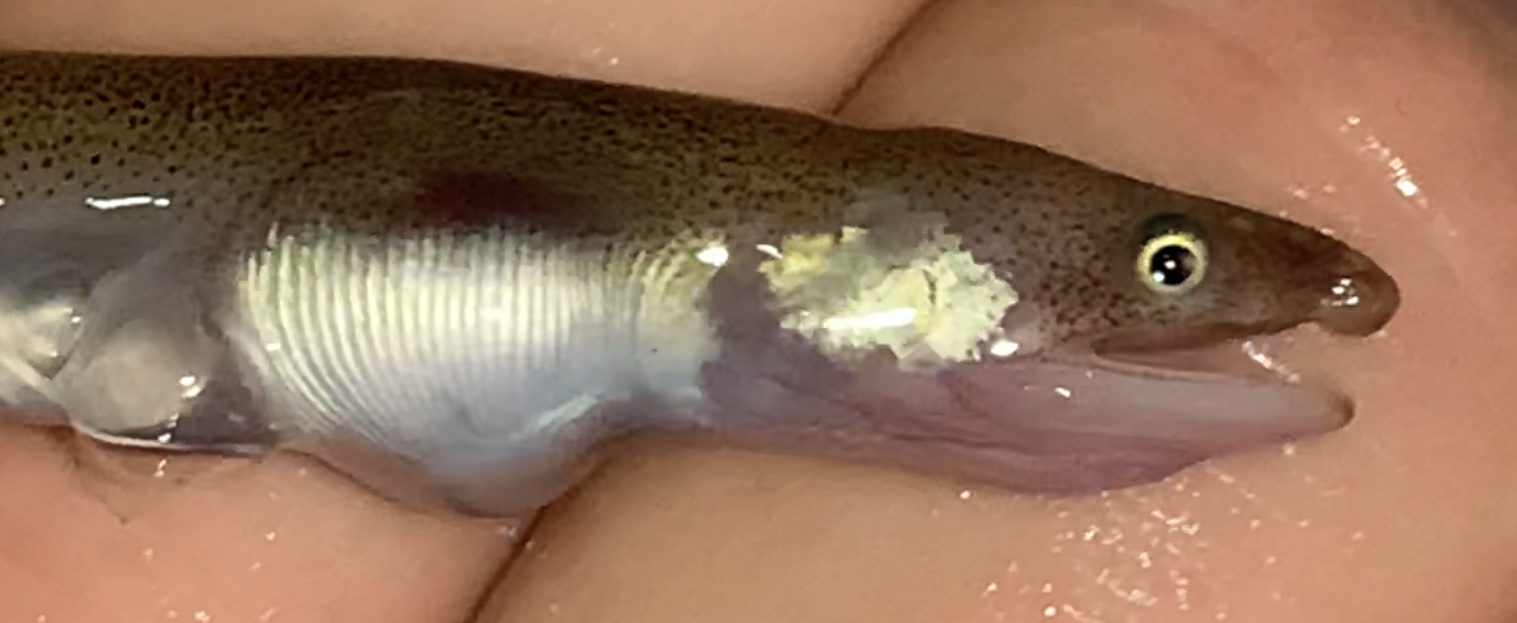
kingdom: Animalia
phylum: Chordata
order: Anguilliformes
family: Ophichthidae
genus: Myrophis
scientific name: Myrophis punctatus
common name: Speckled worm eel
